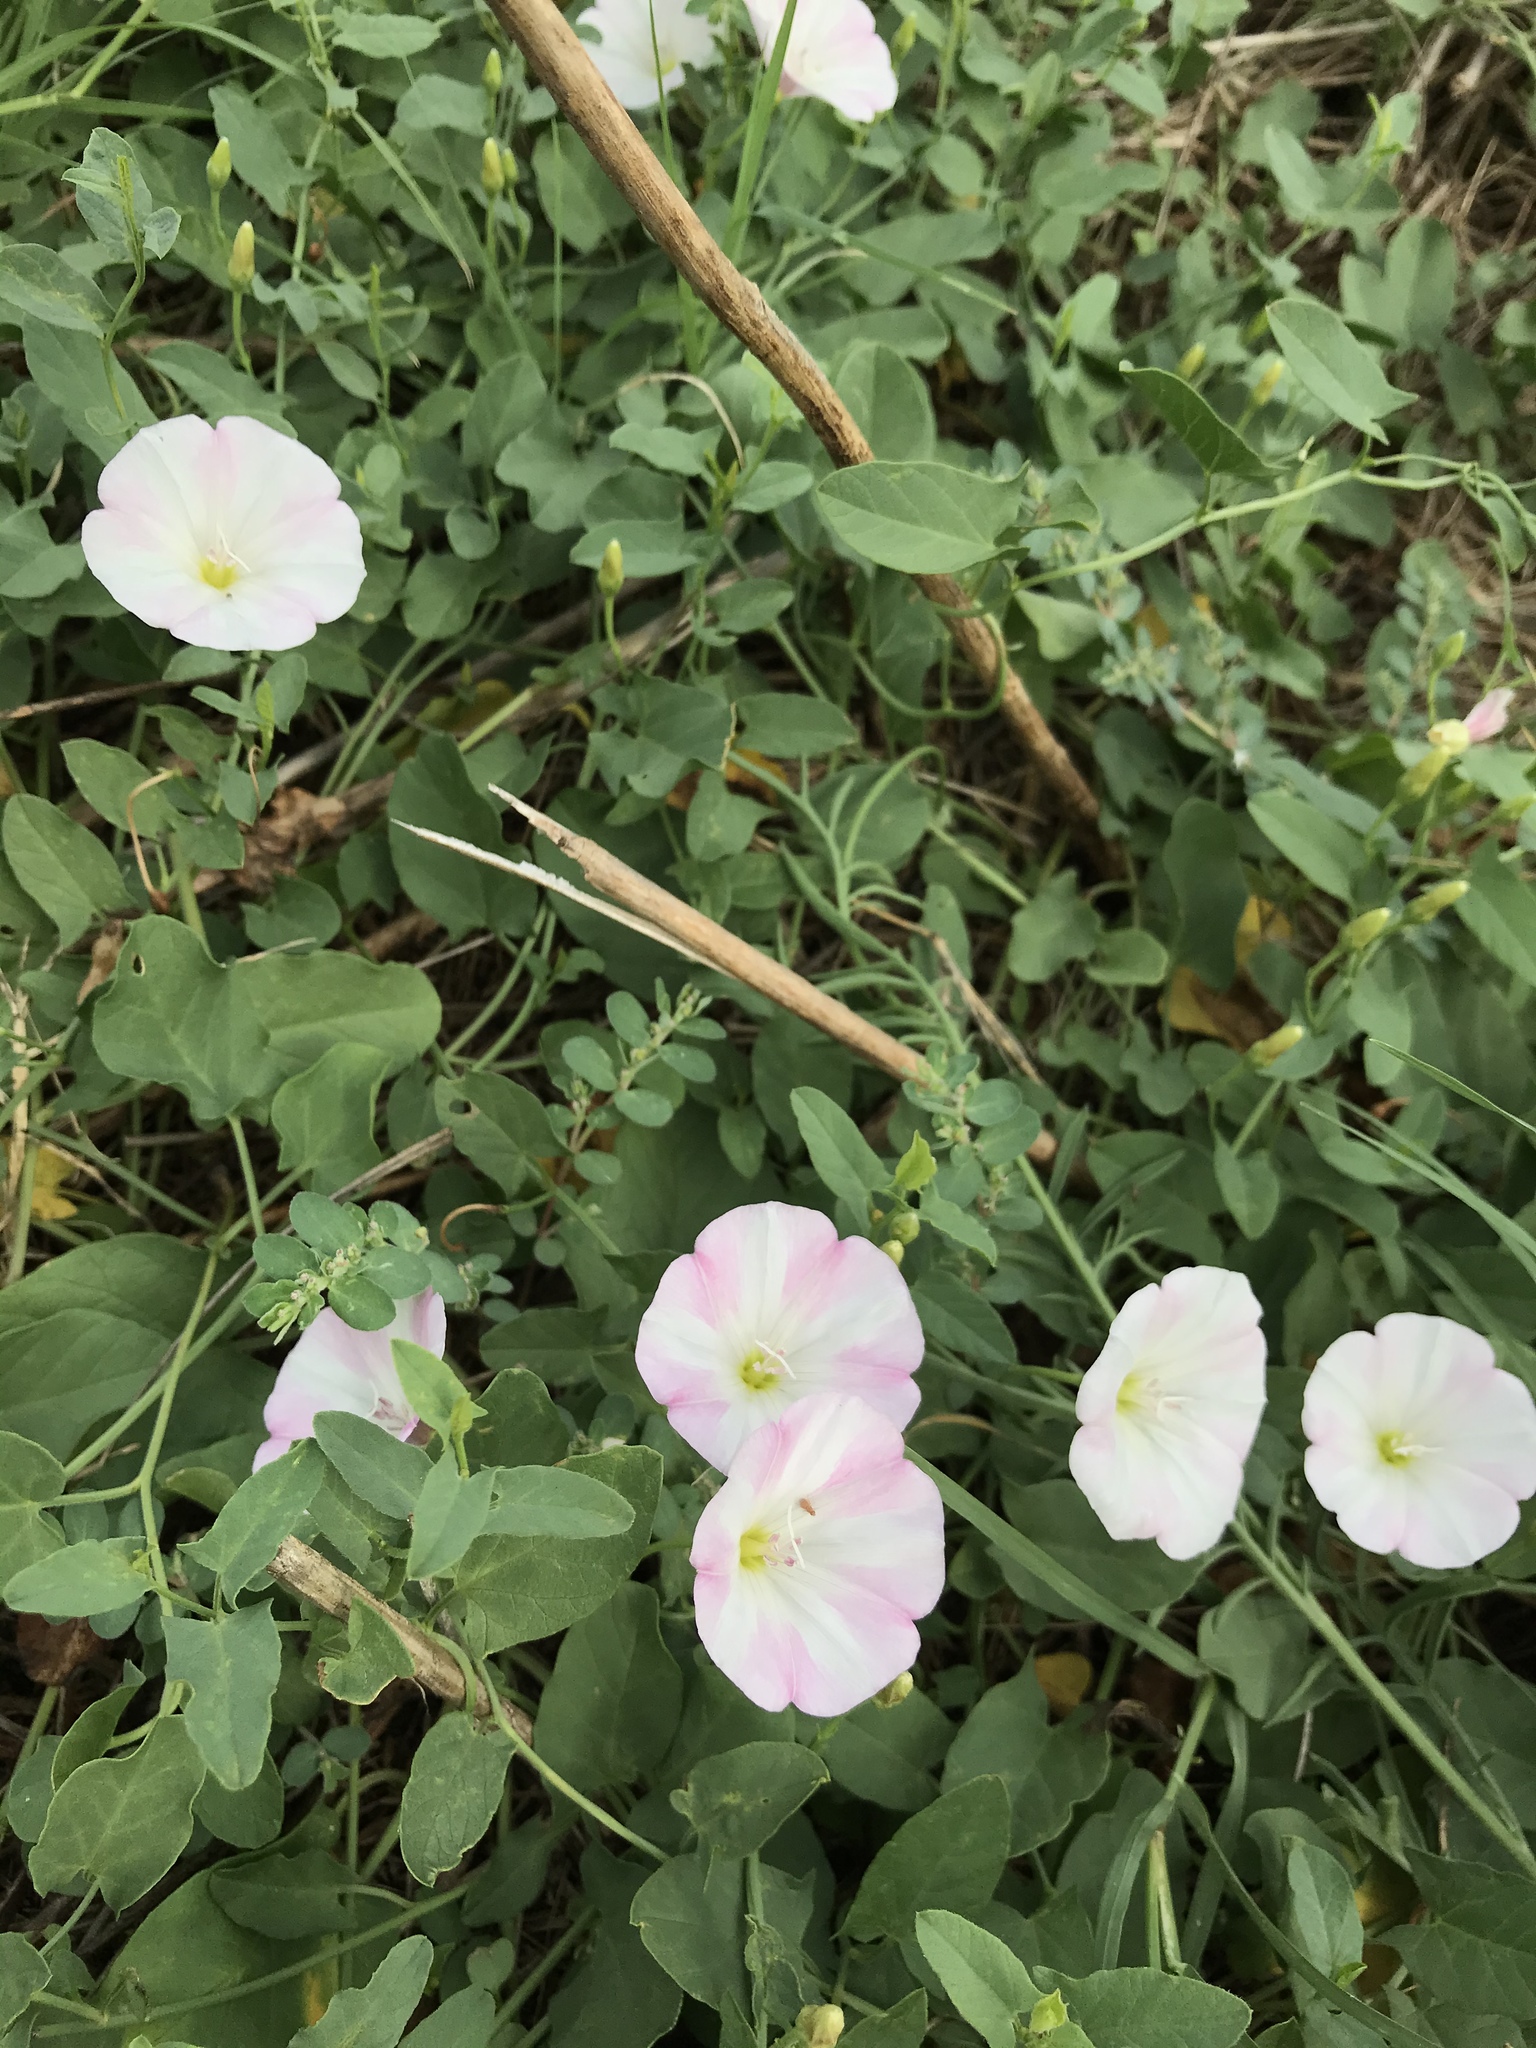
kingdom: Plantae
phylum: Tracheophyta
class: Magnoliopsida
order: Solanales
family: Convolvulaceae
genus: Convolvulus
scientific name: Convolvulus arvensis
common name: Field bindweed
